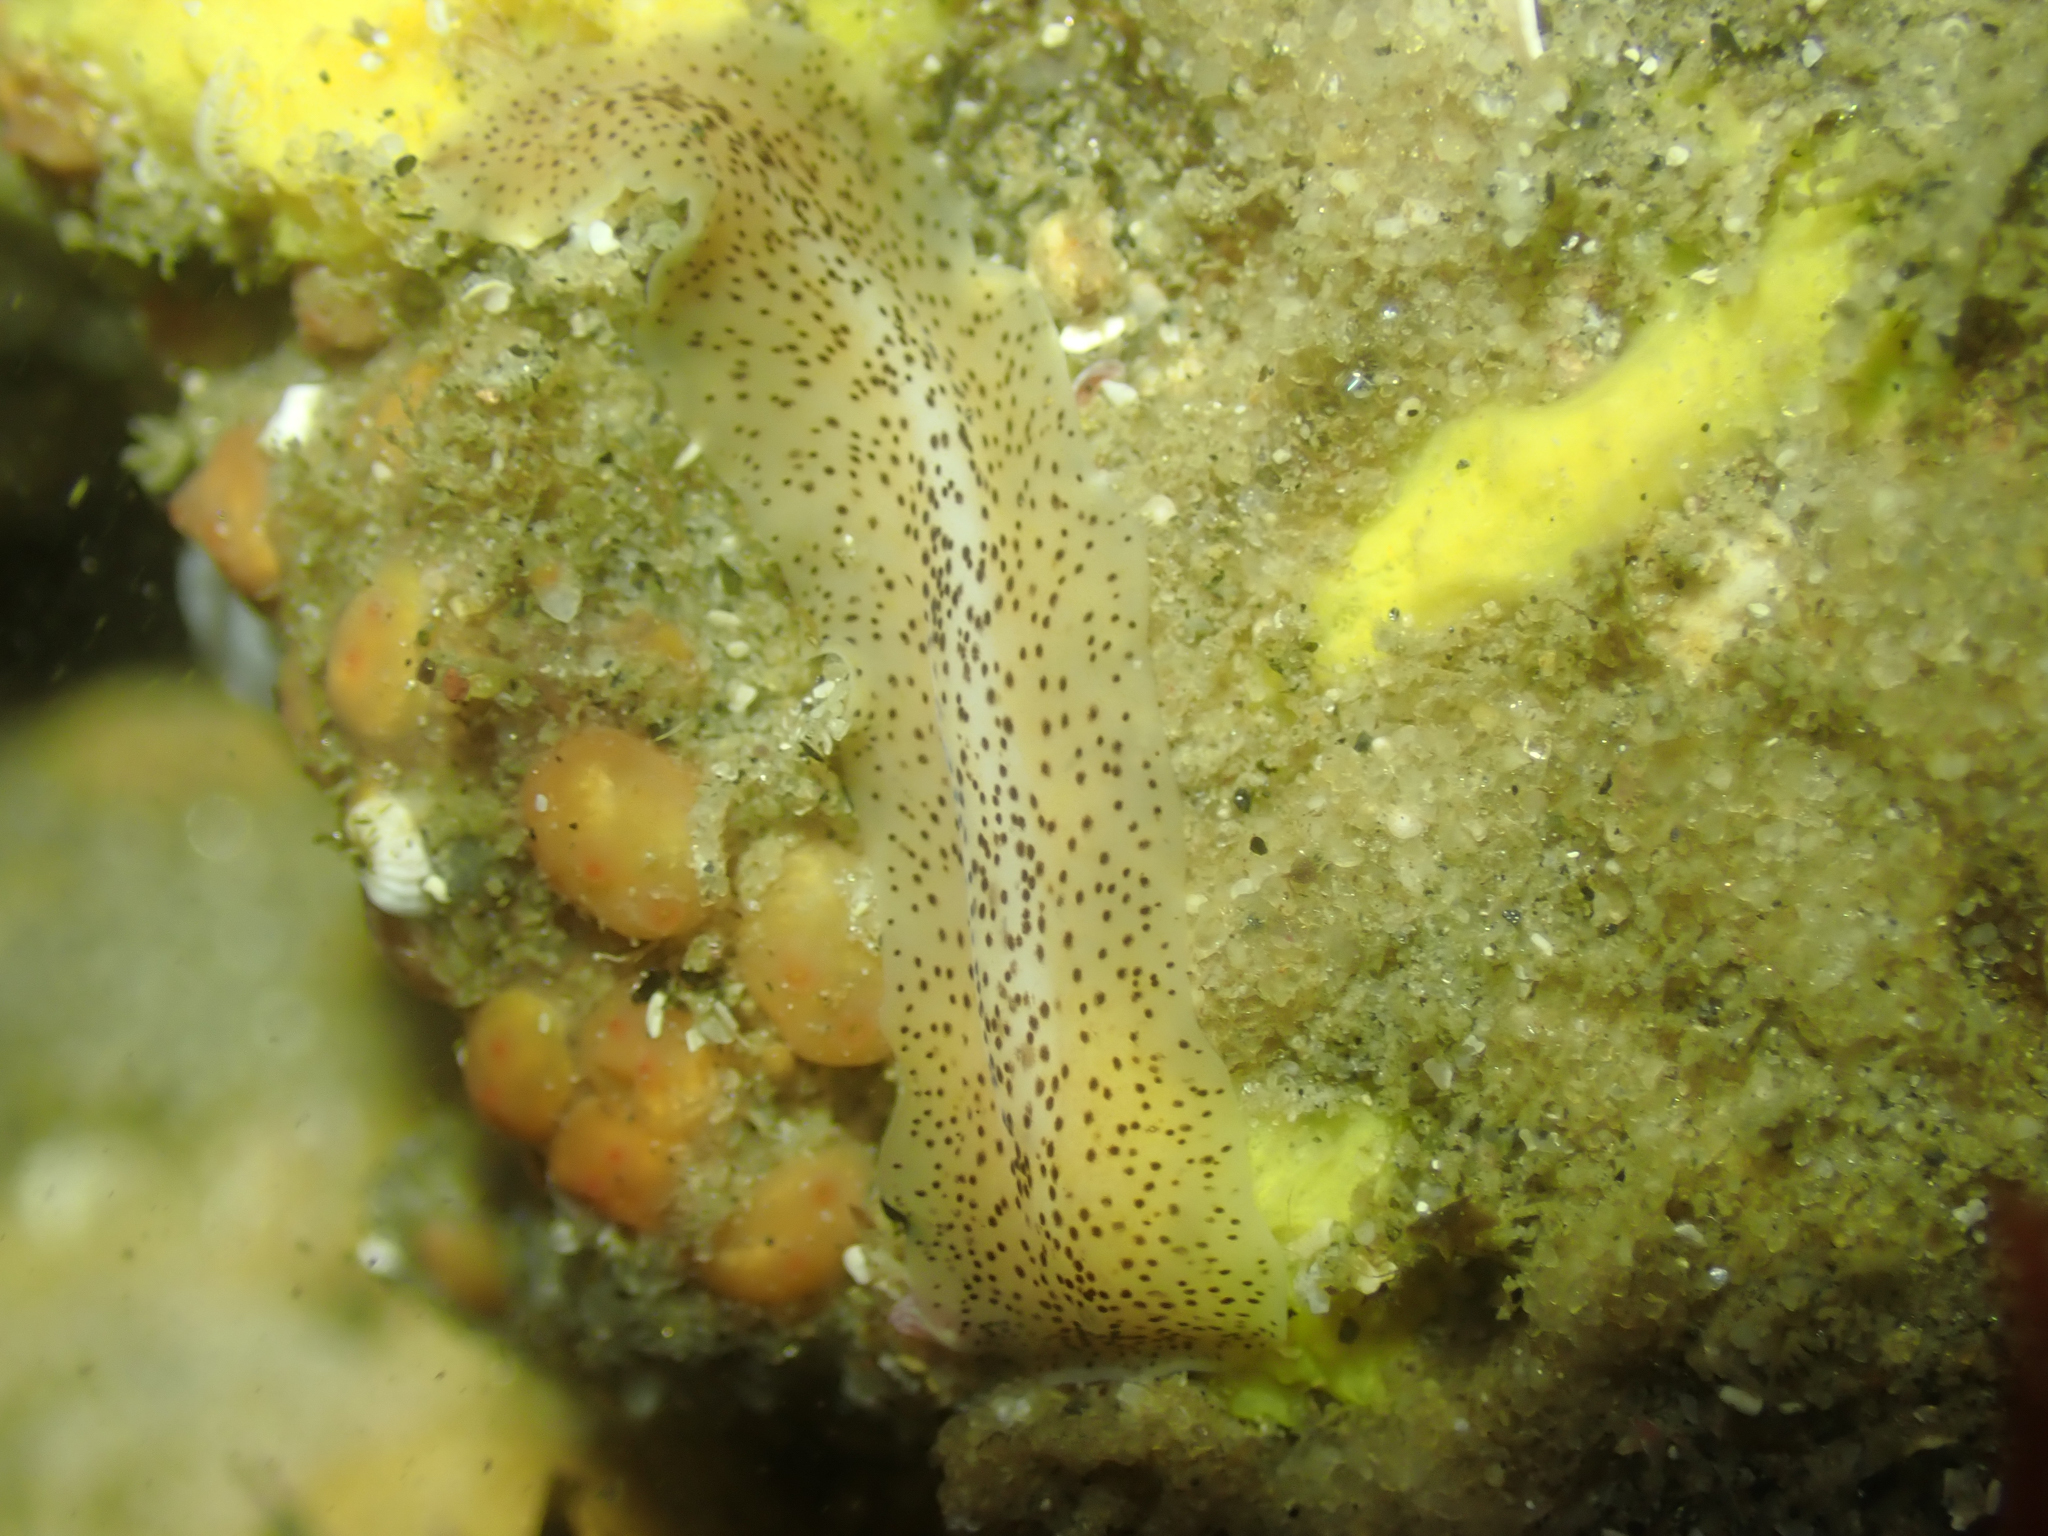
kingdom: Animalia
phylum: Platyhelminthes
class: Turbellaria
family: Prosthiostomidae
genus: Enchiridium
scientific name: Enchiridium punctatum
